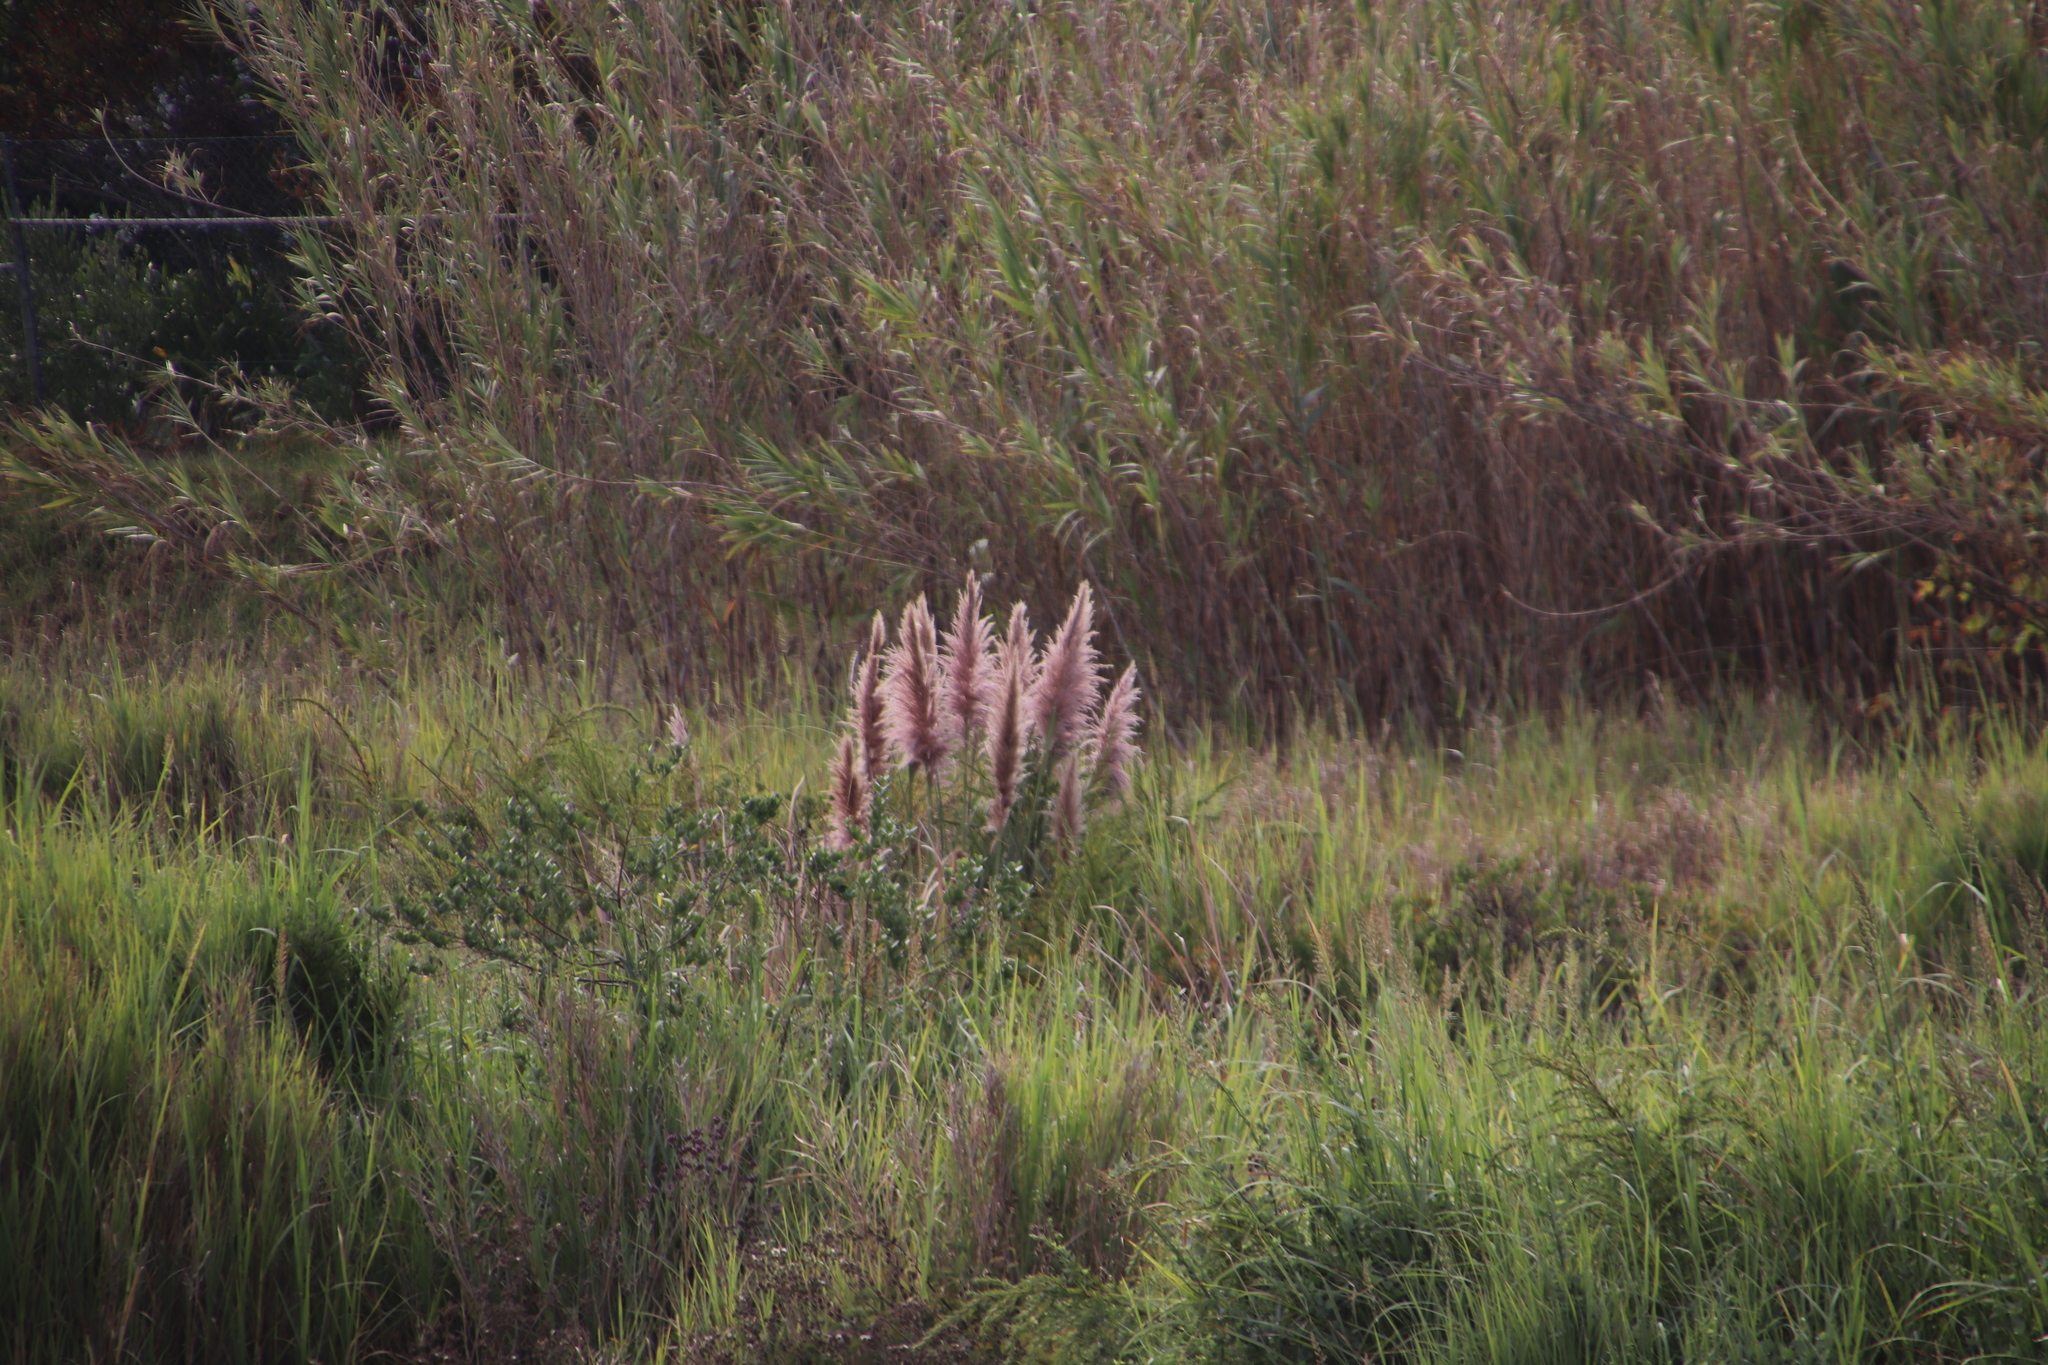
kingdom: Plantae
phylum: Tracheophyta
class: Liliopsida
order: Poales
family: Poaceae
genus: Cortaderia
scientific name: Cortaderia selloana
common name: Uruguayan pampas grass
